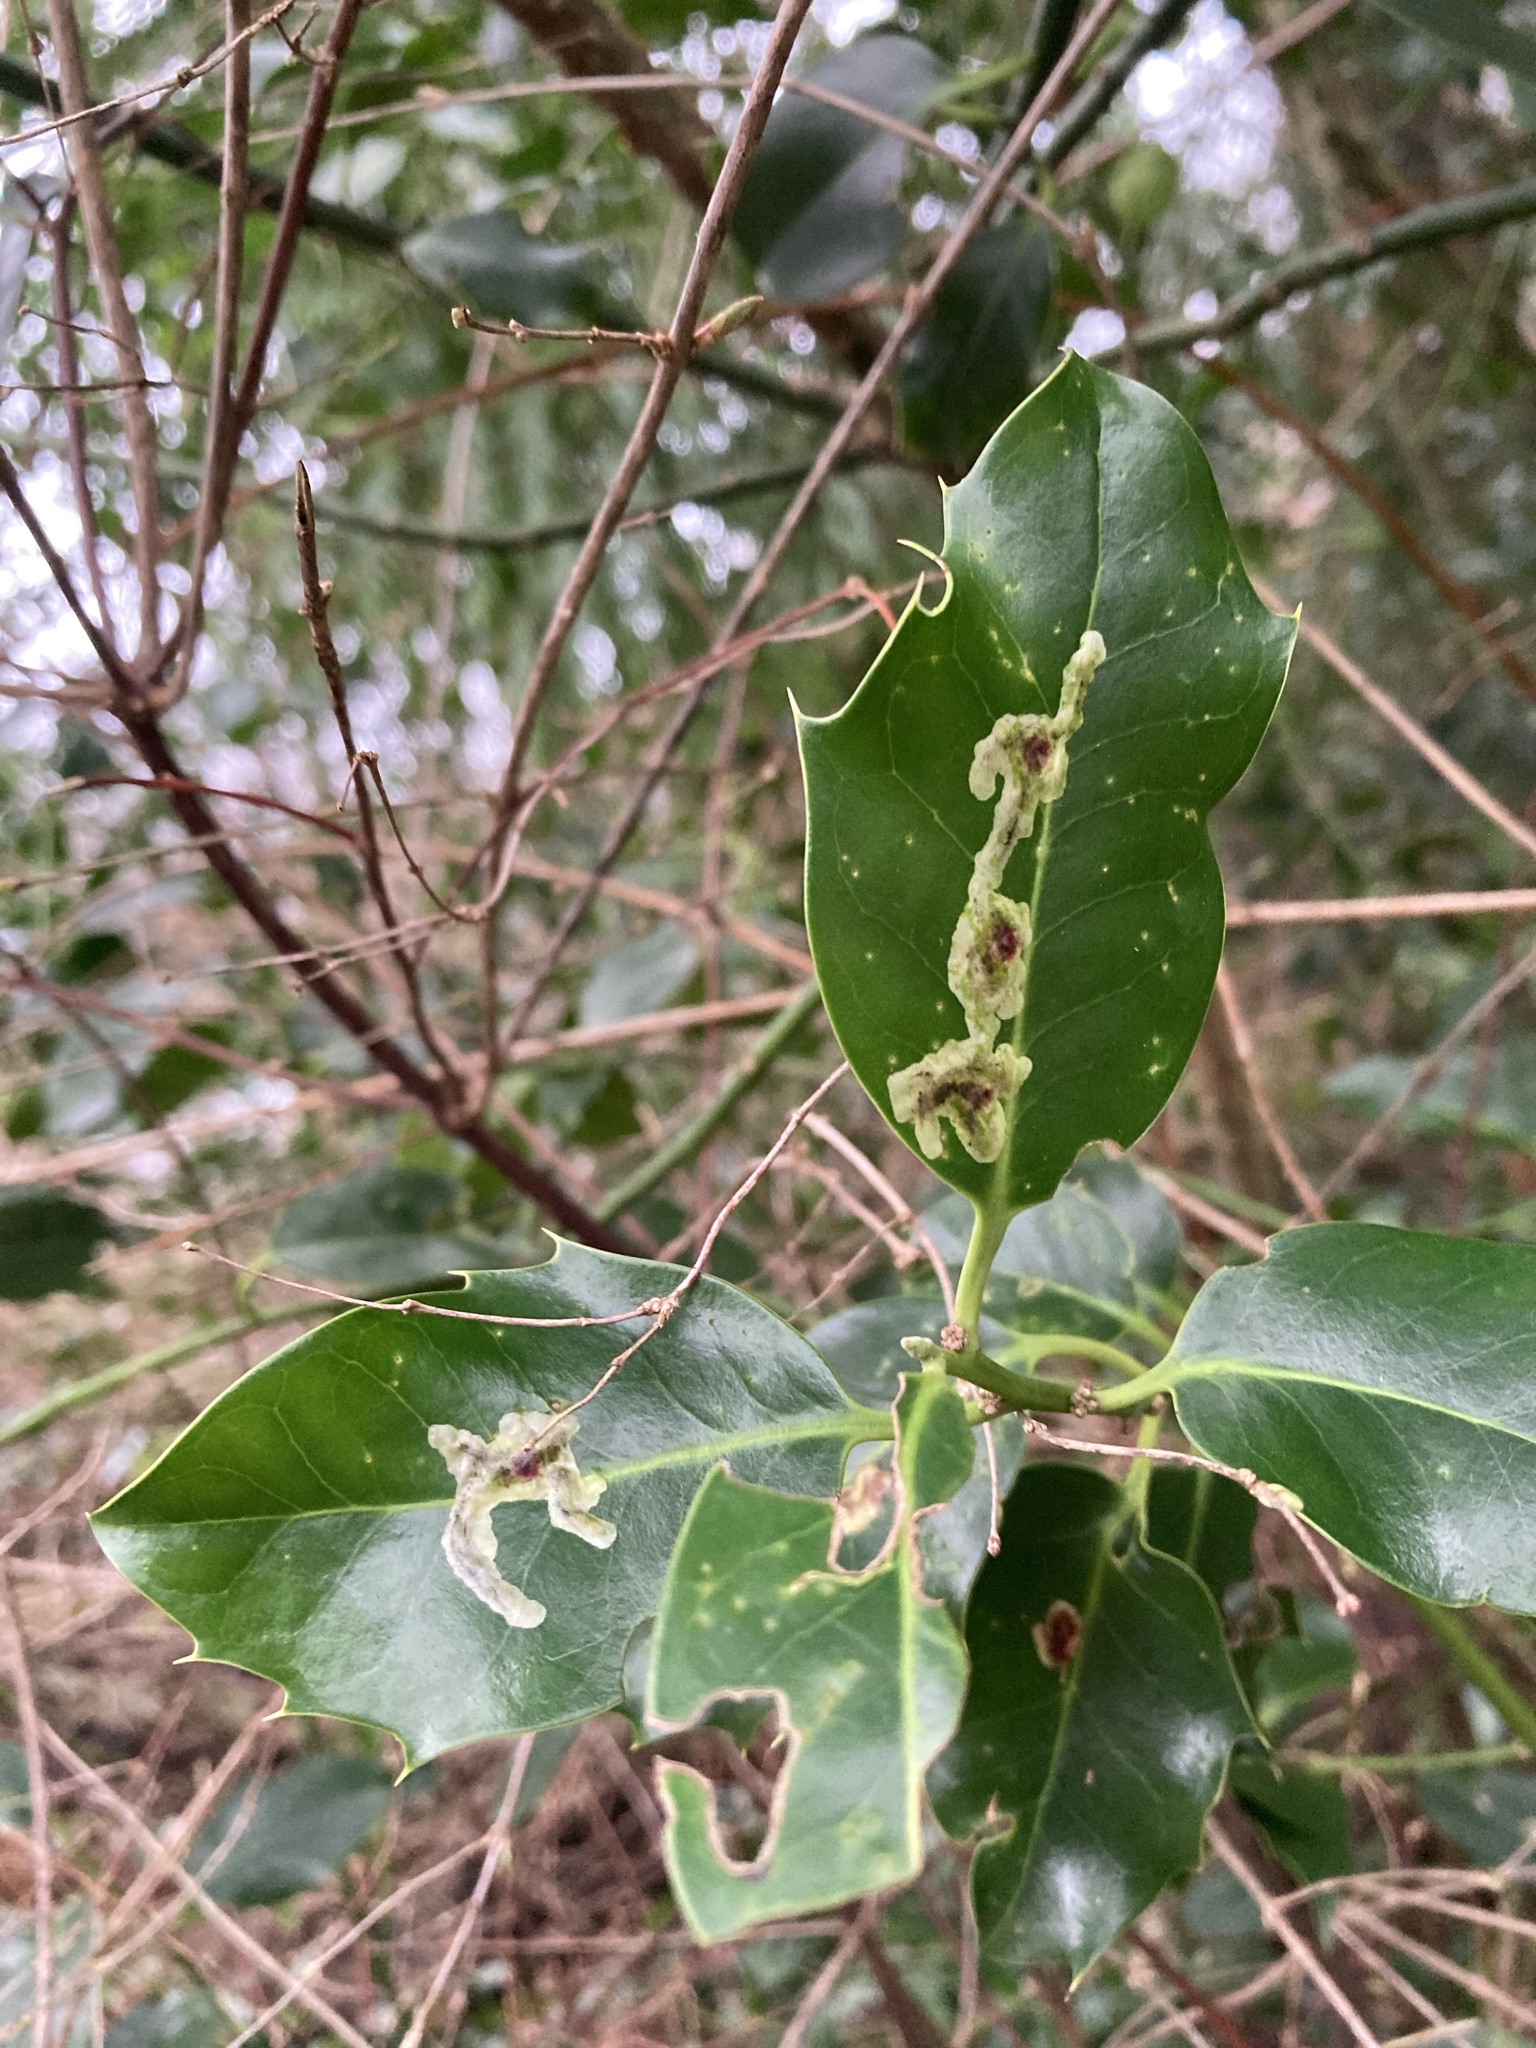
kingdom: Animalia
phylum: Arthropoda
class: Insecta
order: Diptera
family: Agromyzidae
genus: Phytomyza
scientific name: Phytomyza ilicis
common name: Holly leafminer
